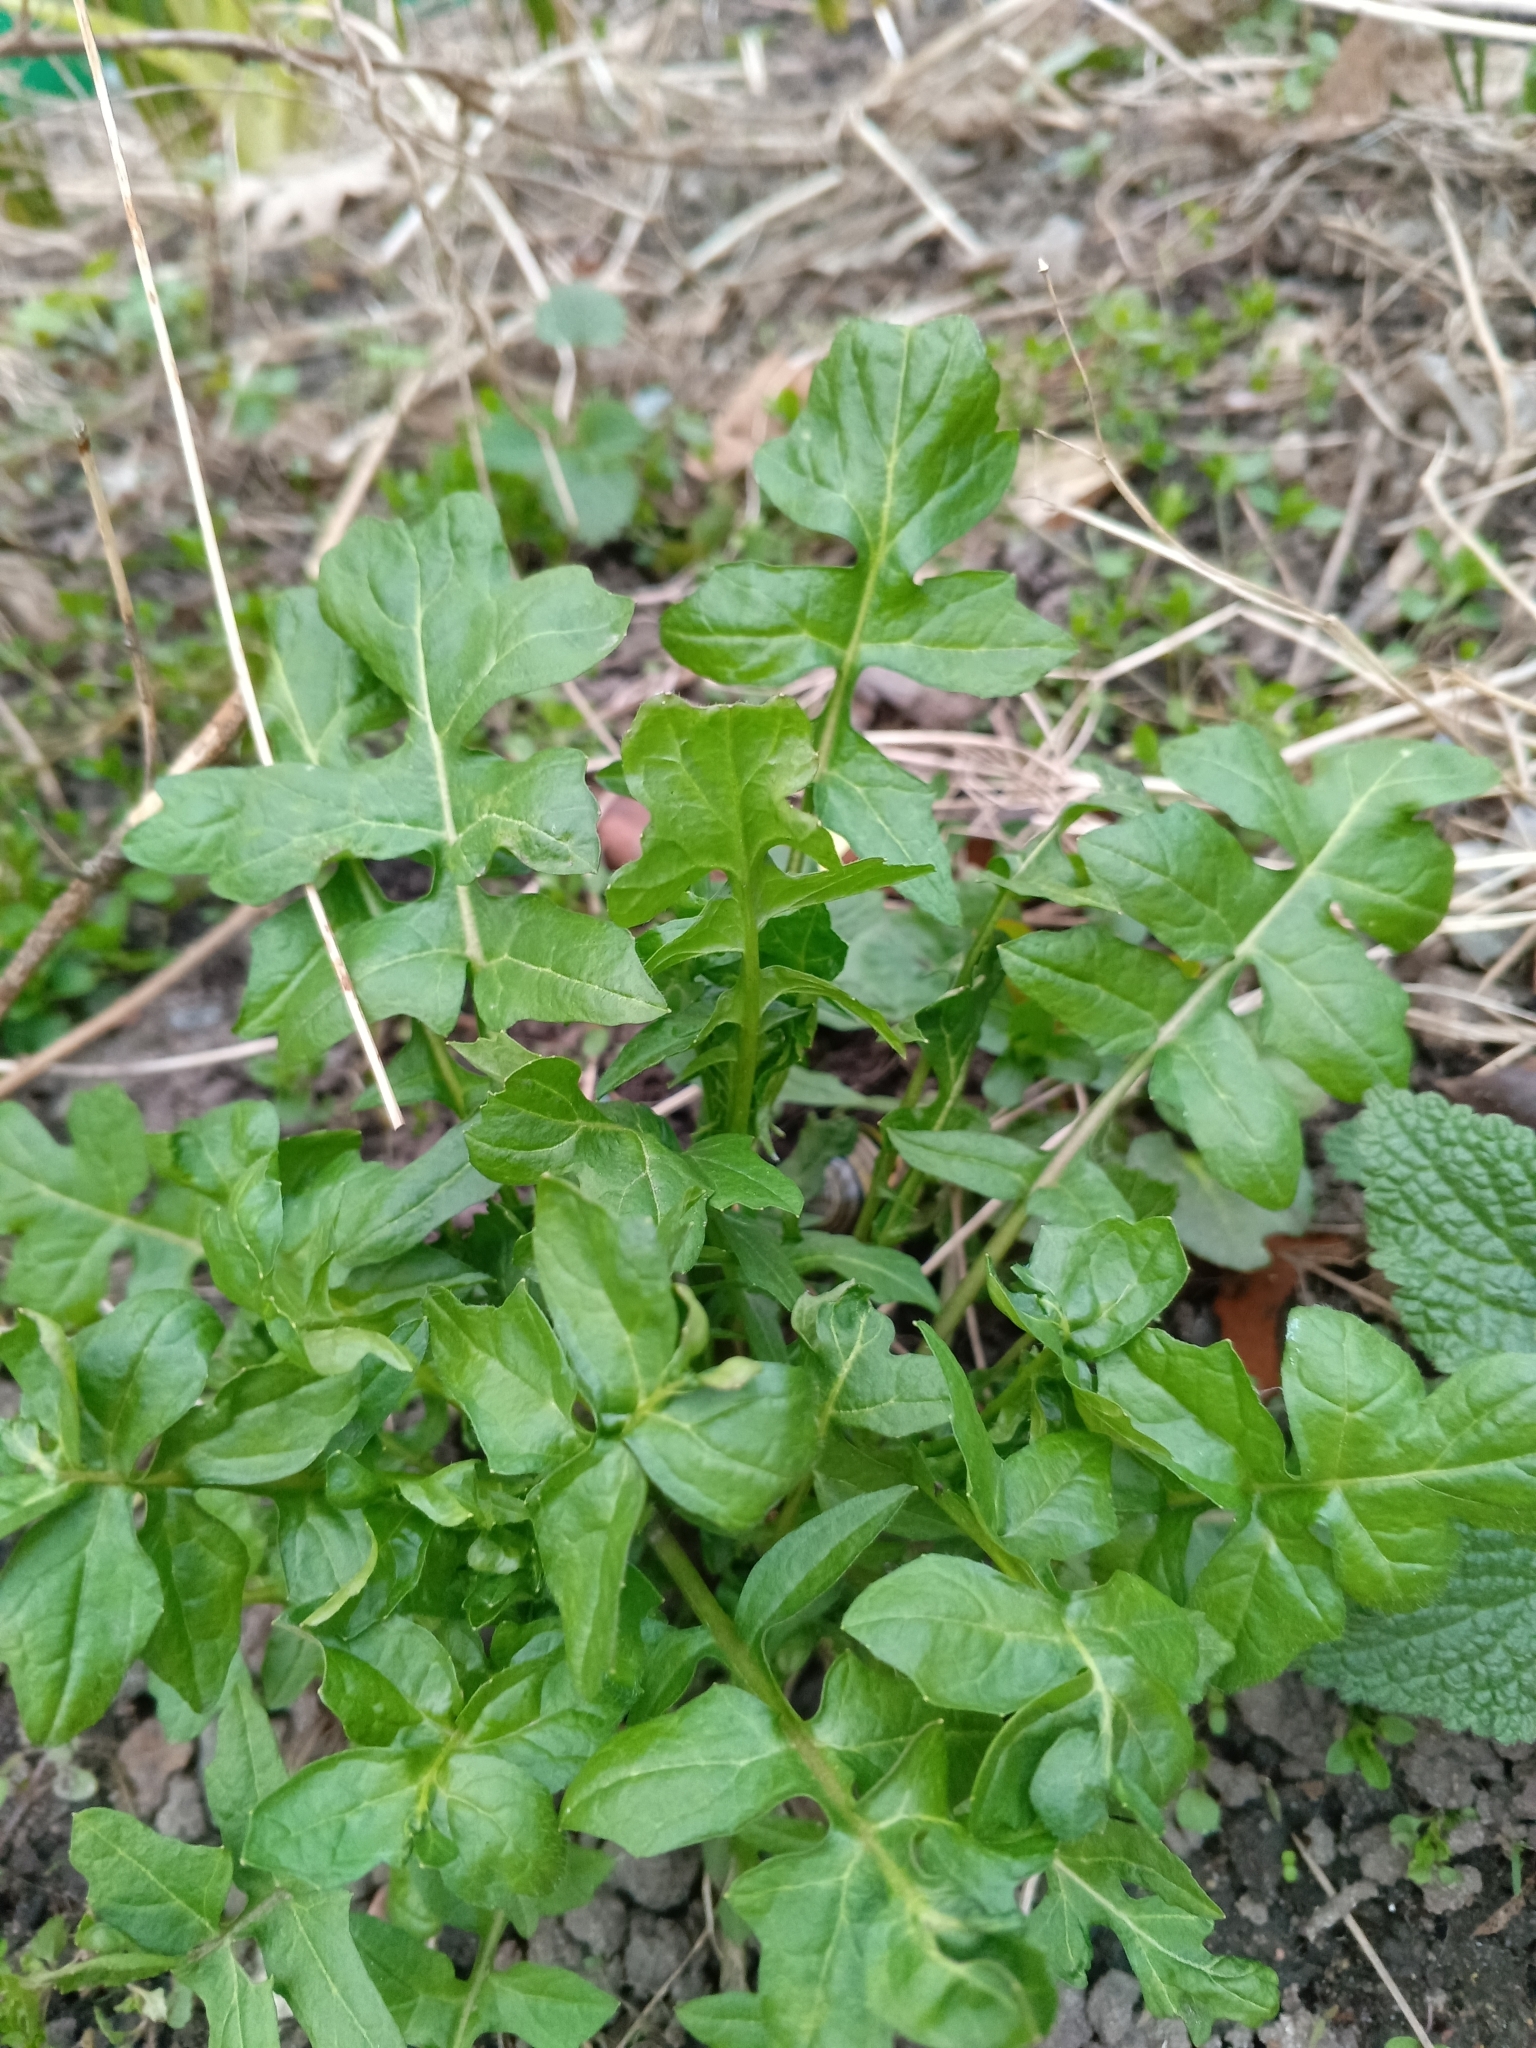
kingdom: Plantae
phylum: Tracheophyta
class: Magnoliopsida
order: Brassicales
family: Brassicaceae
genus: Sisymbrium
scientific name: Sisymbrium officinale
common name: Hedge mustard
